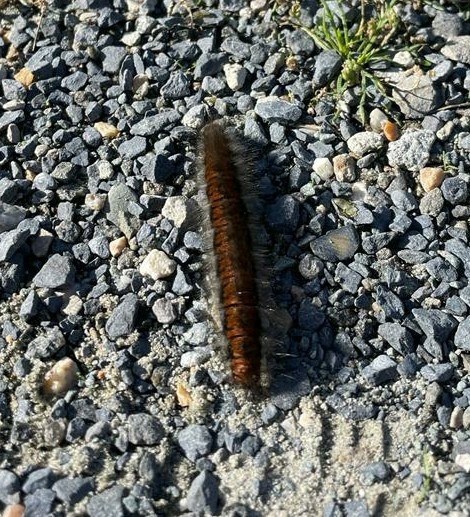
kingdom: Animalia
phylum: Arthropoda
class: Insecta
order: Lepidoptera
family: Lasiocampidae
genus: Macrothylacia
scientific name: Macrothylacia rubi
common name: Fox moth
